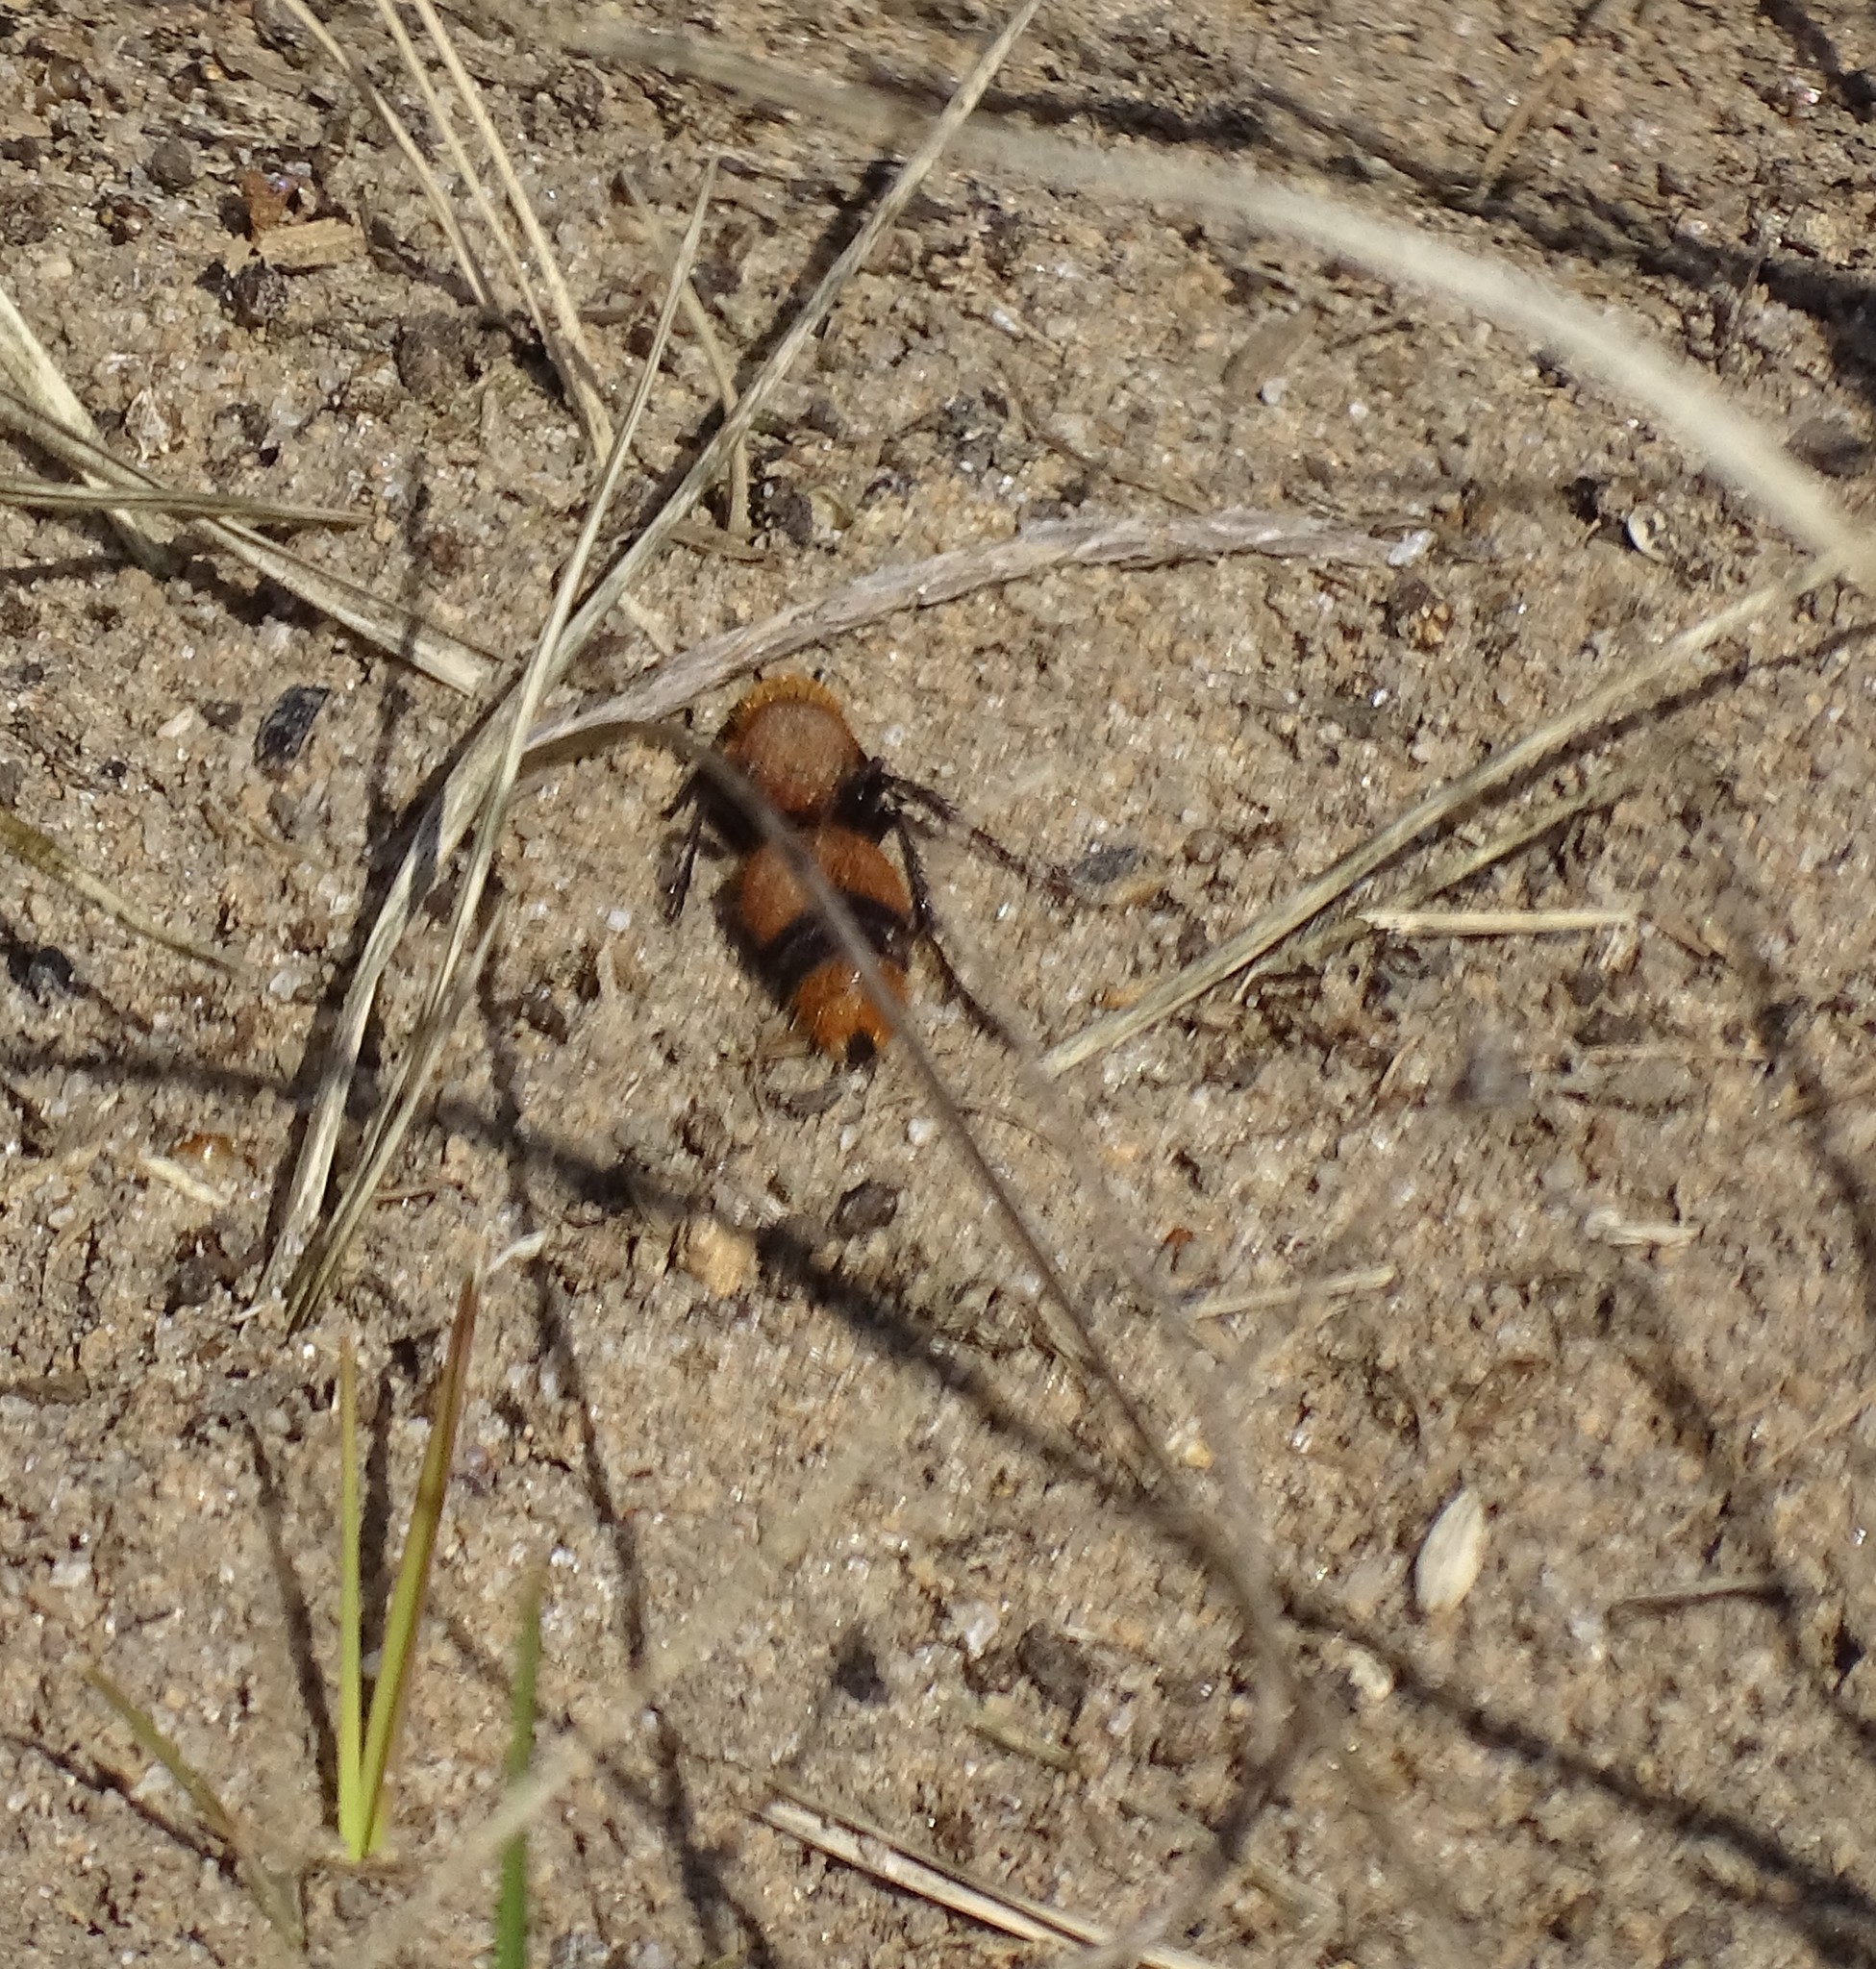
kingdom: Animalia
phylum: Arthropoda
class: Insecta
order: Hymenoptera
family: Mutillidae
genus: Dasymutilla
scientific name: Dasymutilla occidentalis
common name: Common eastern velvet ant
